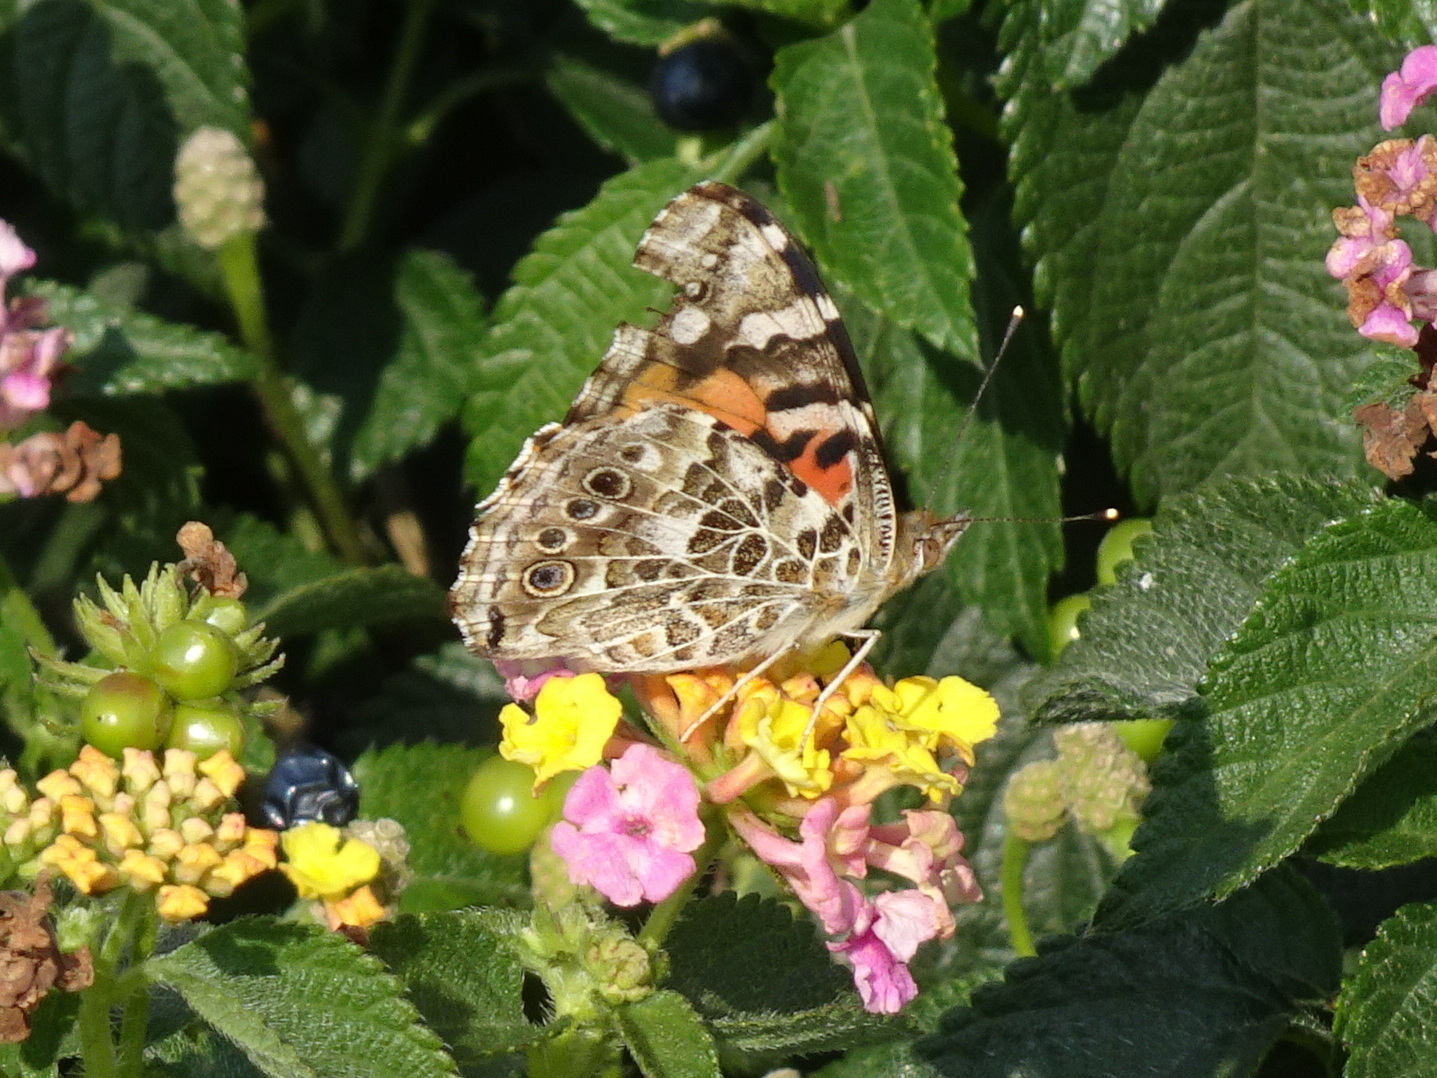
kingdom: Animalia
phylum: Arthropoda
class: Insecta
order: Lepidoptera
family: Nymphalidae
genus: Vanessa
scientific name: Vanessa cardui
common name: Painted lady
